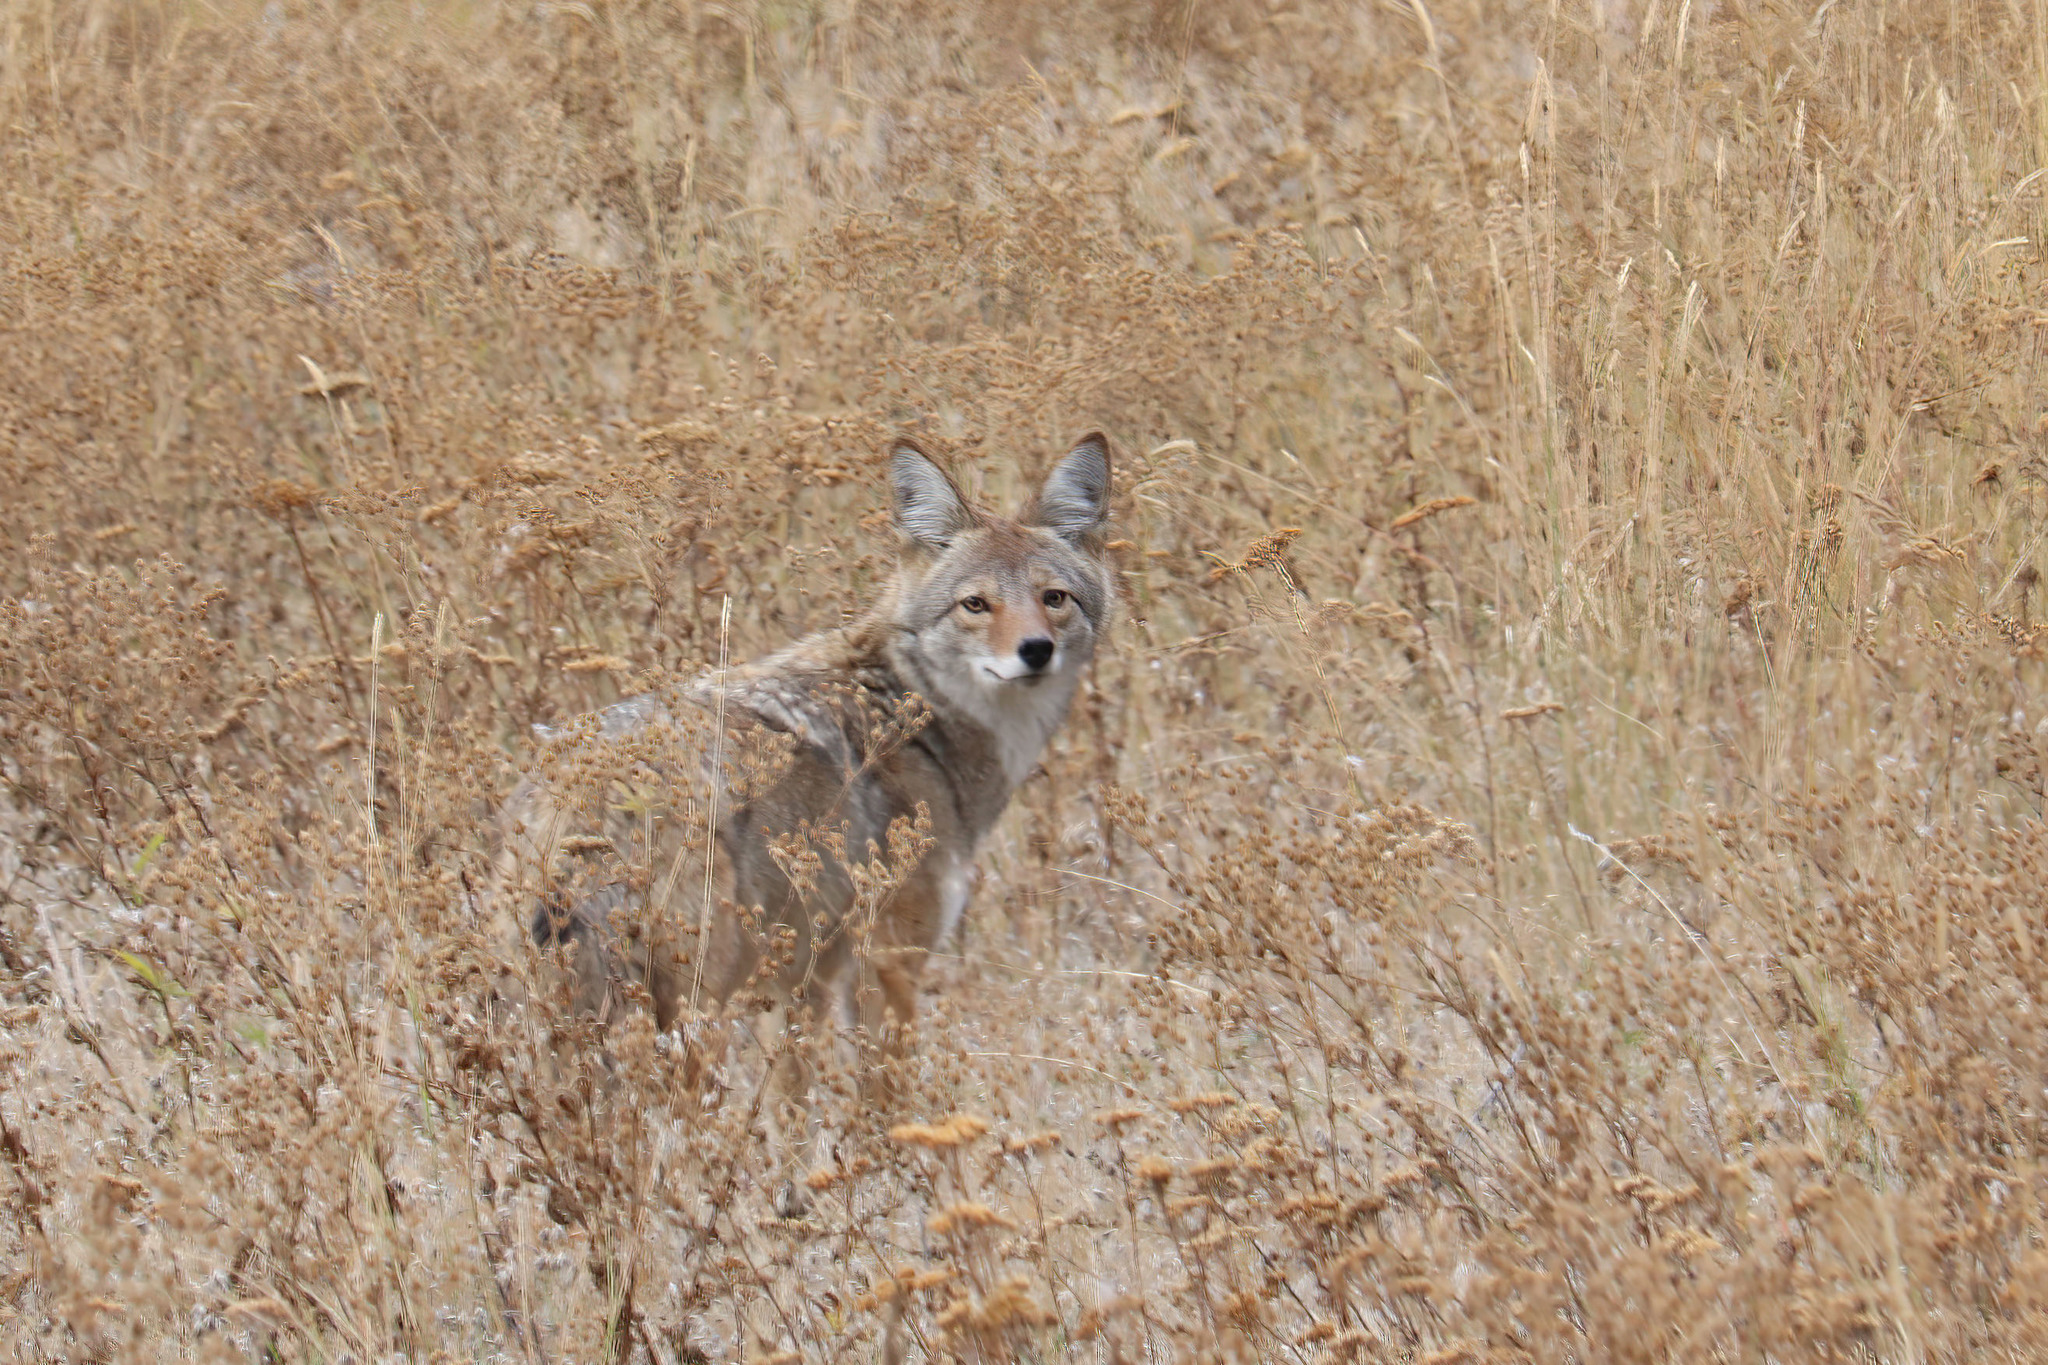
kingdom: Animalia
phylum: Chordata
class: Mammalia
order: Carnivora
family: Canidae
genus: Canis
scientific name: Canis latrans
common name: Coyote
